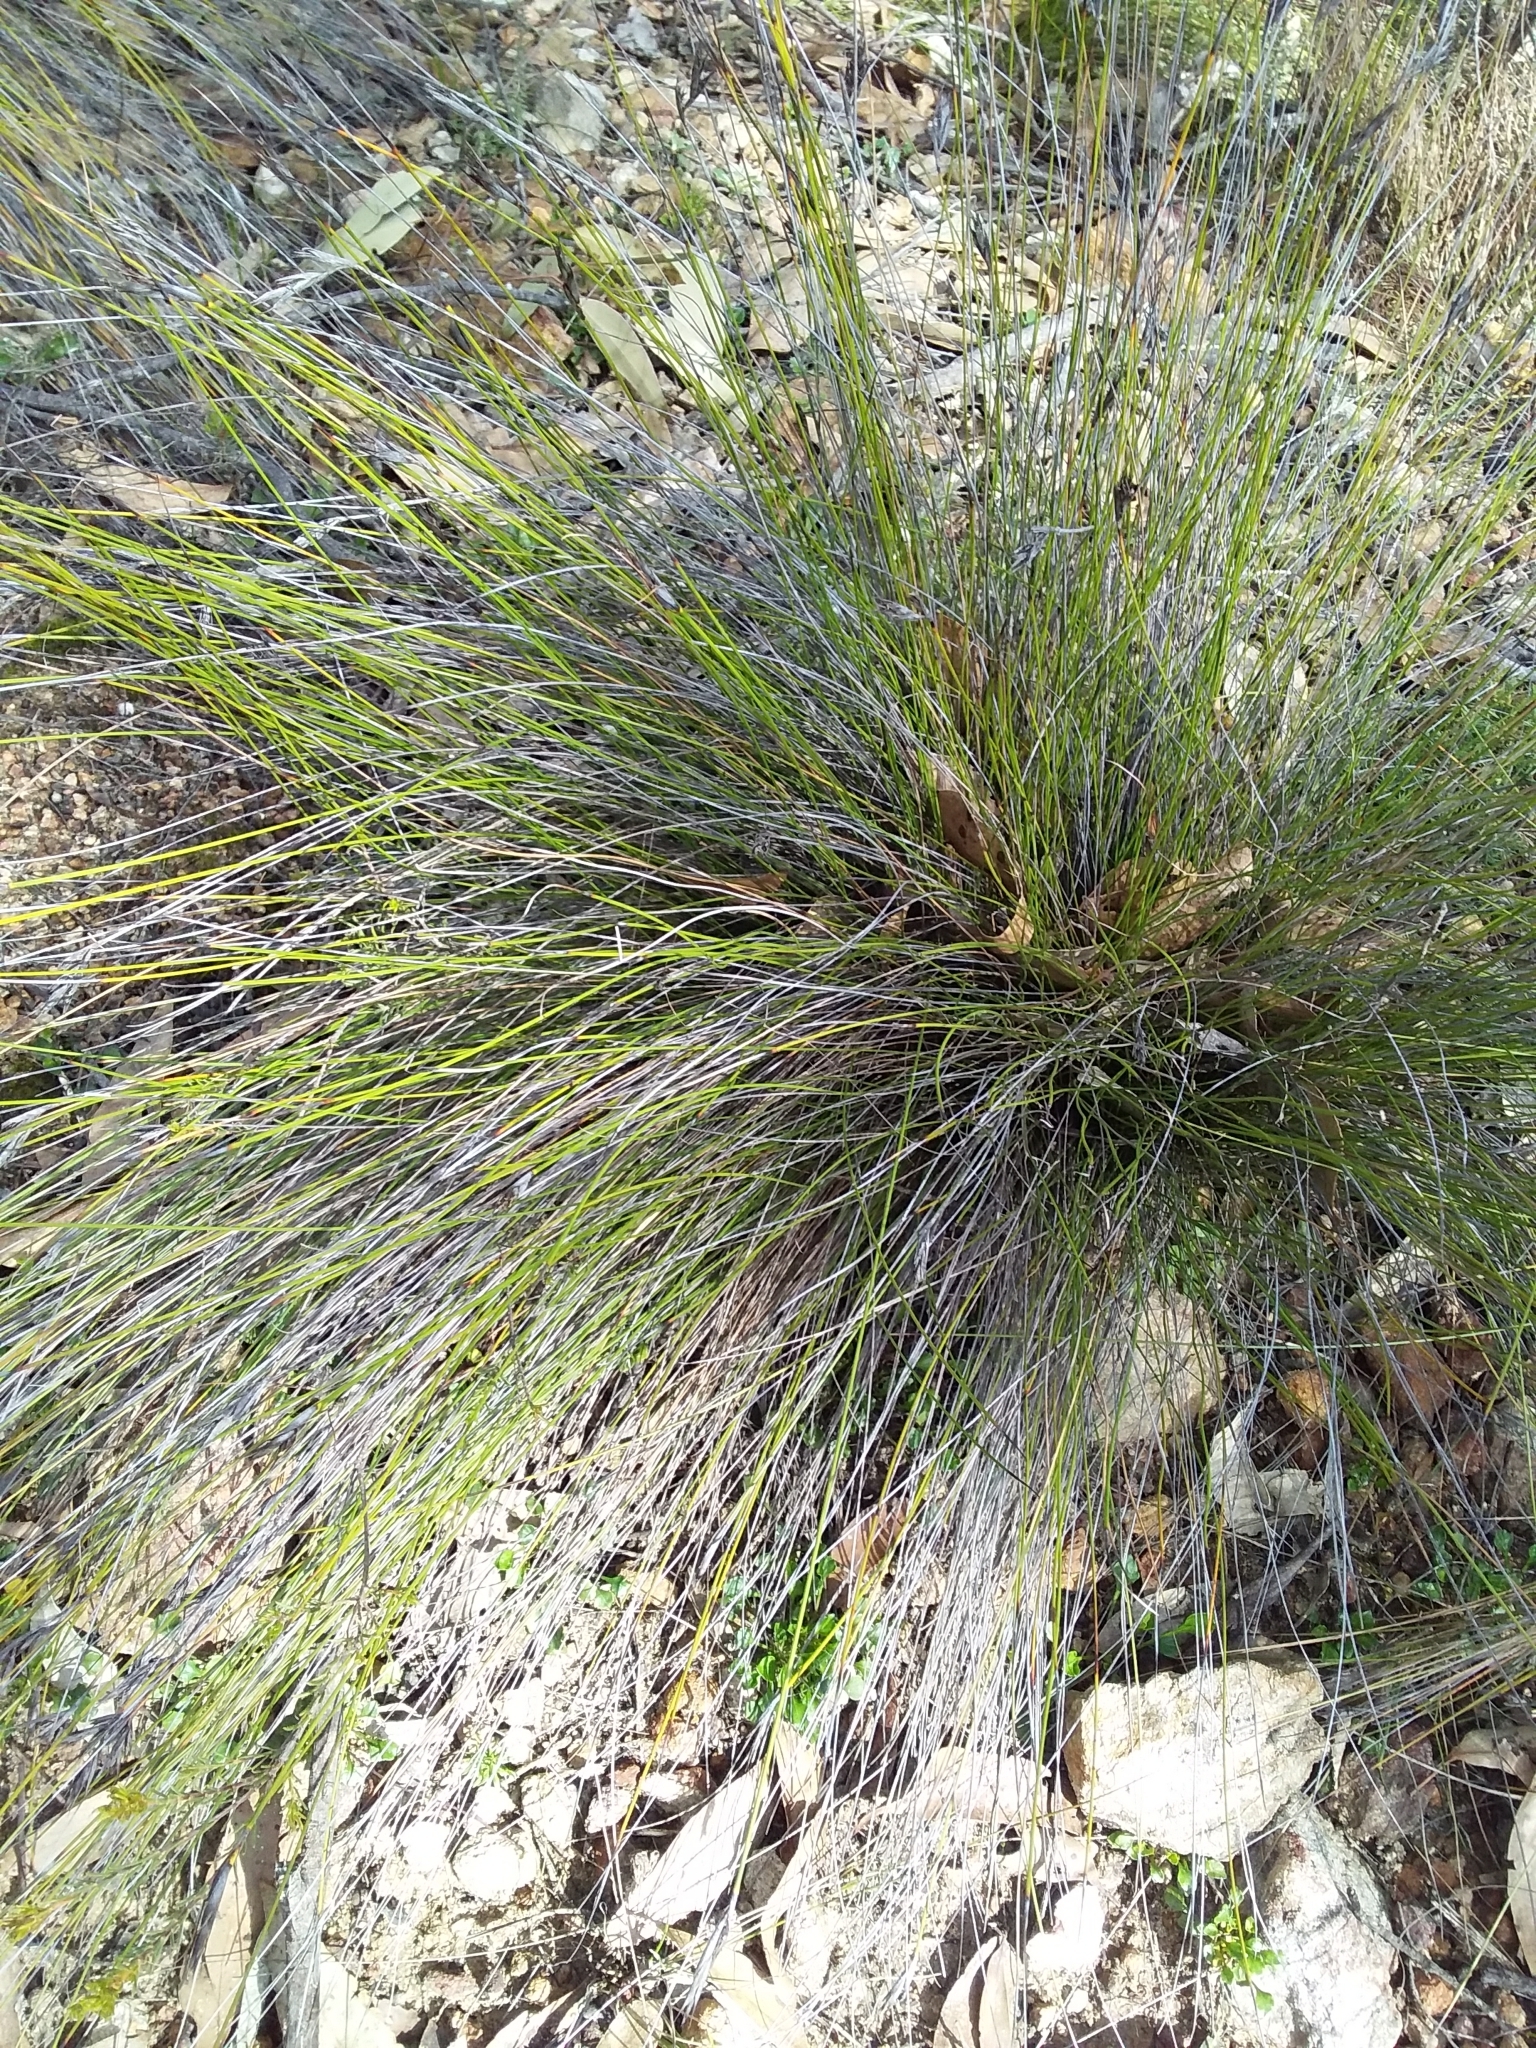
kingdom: Plantae
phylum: Tracheophyta
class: Liliopsida
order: Poales
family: Cyperaceae
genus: Lepidosperma
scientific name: Lepidosperma carphoides
